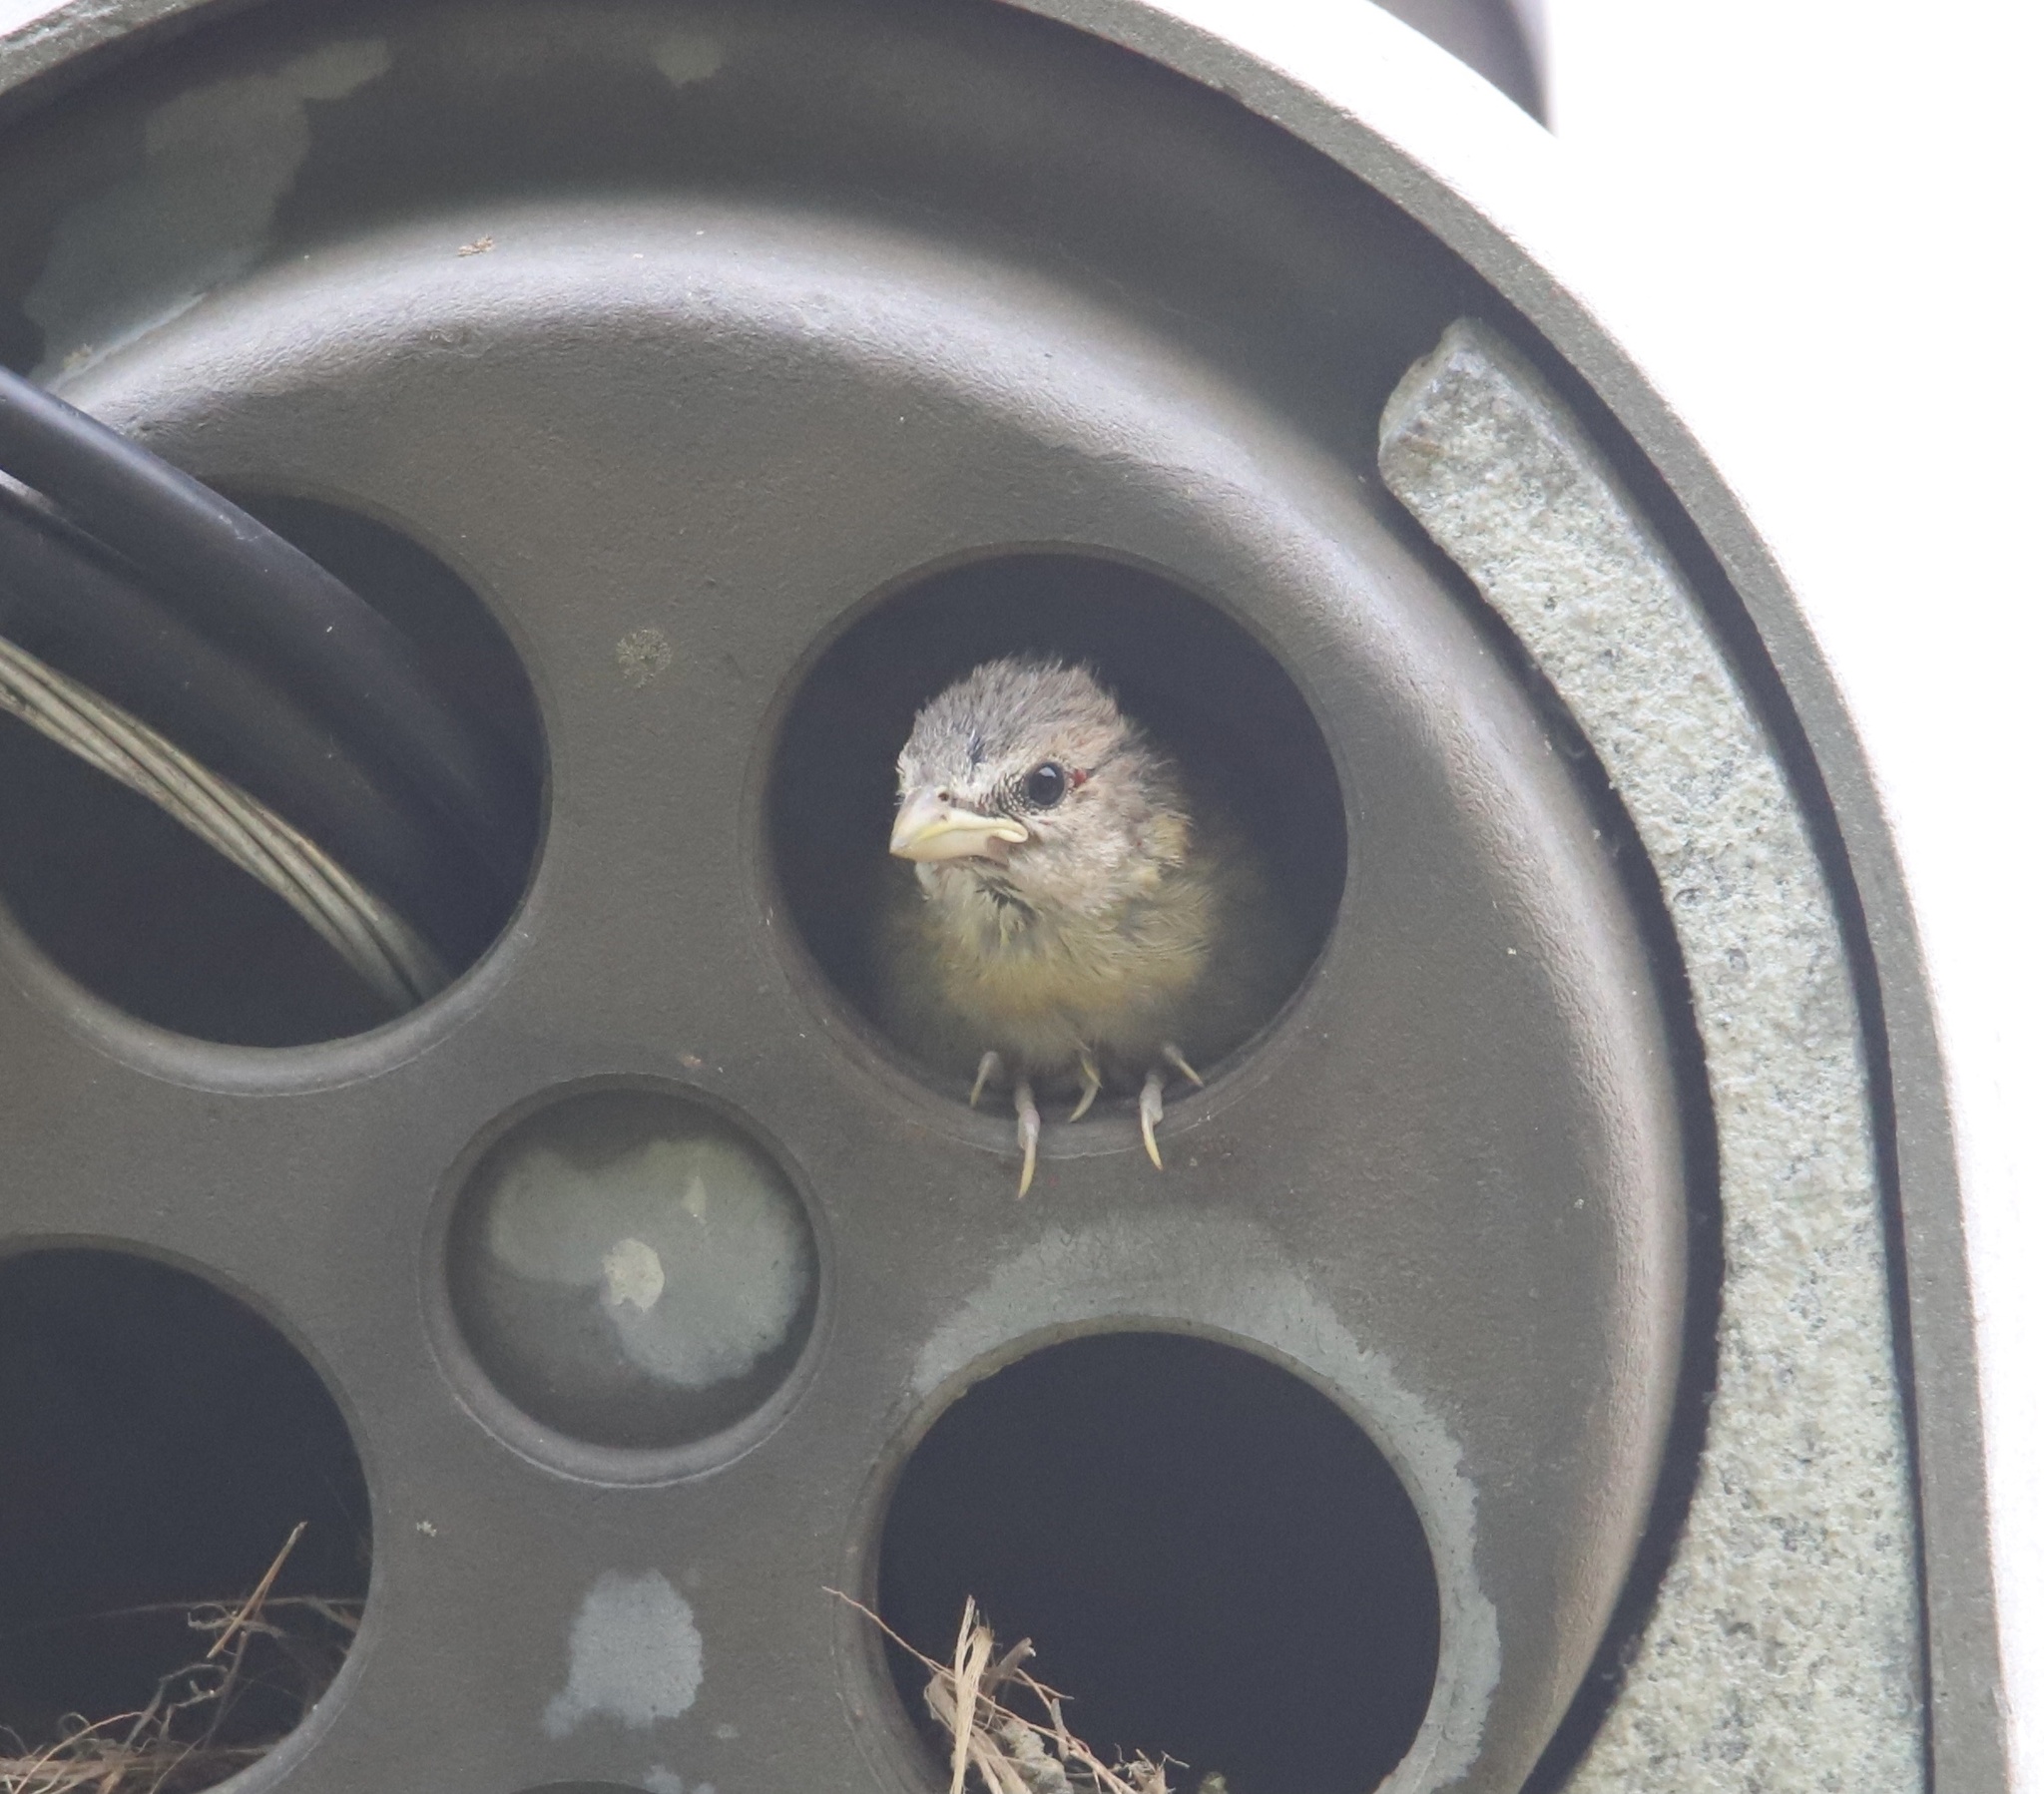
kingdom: Animalia
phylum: Chordata
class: Aves
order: Passeriformes
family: Thraupidae
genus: Sicalis
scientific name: Sicalis flaveola
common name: Saffron finch
